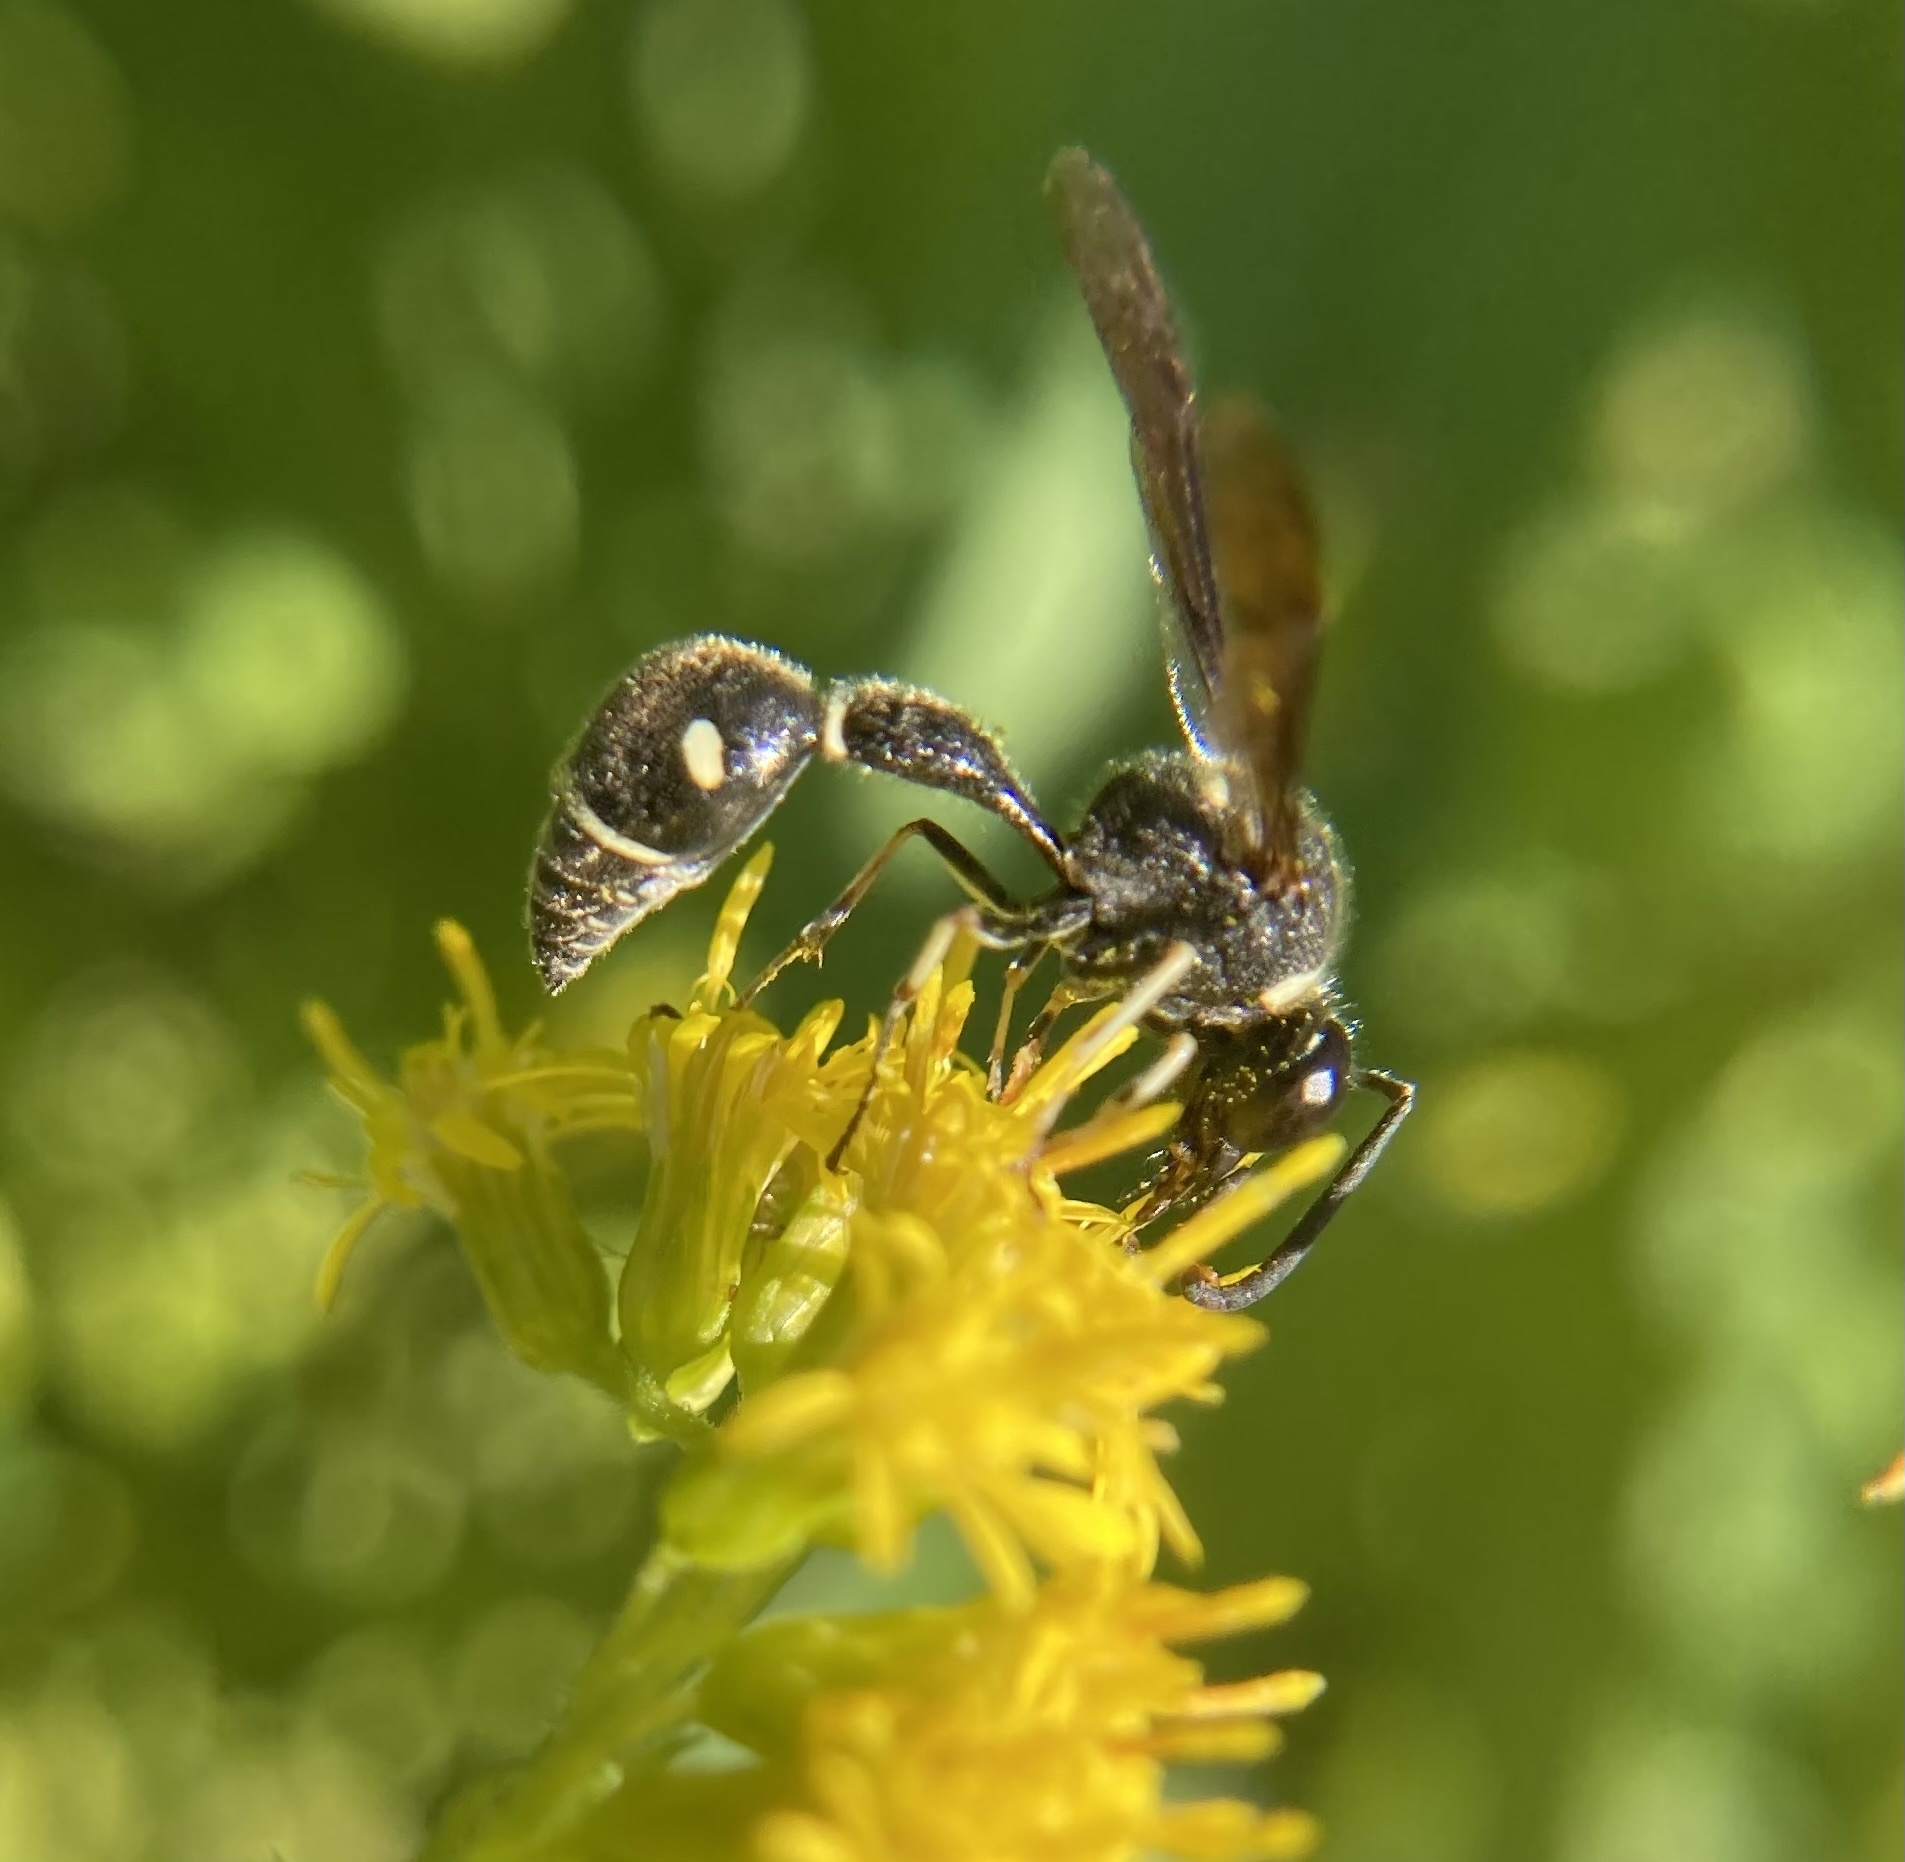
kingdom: Animalia
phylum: Arthropoda
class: Insecta
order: Hymenoptera
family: Vespidae
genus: Eumenes
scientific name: Eumenes fraternus
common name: Fraternal potter wasp
